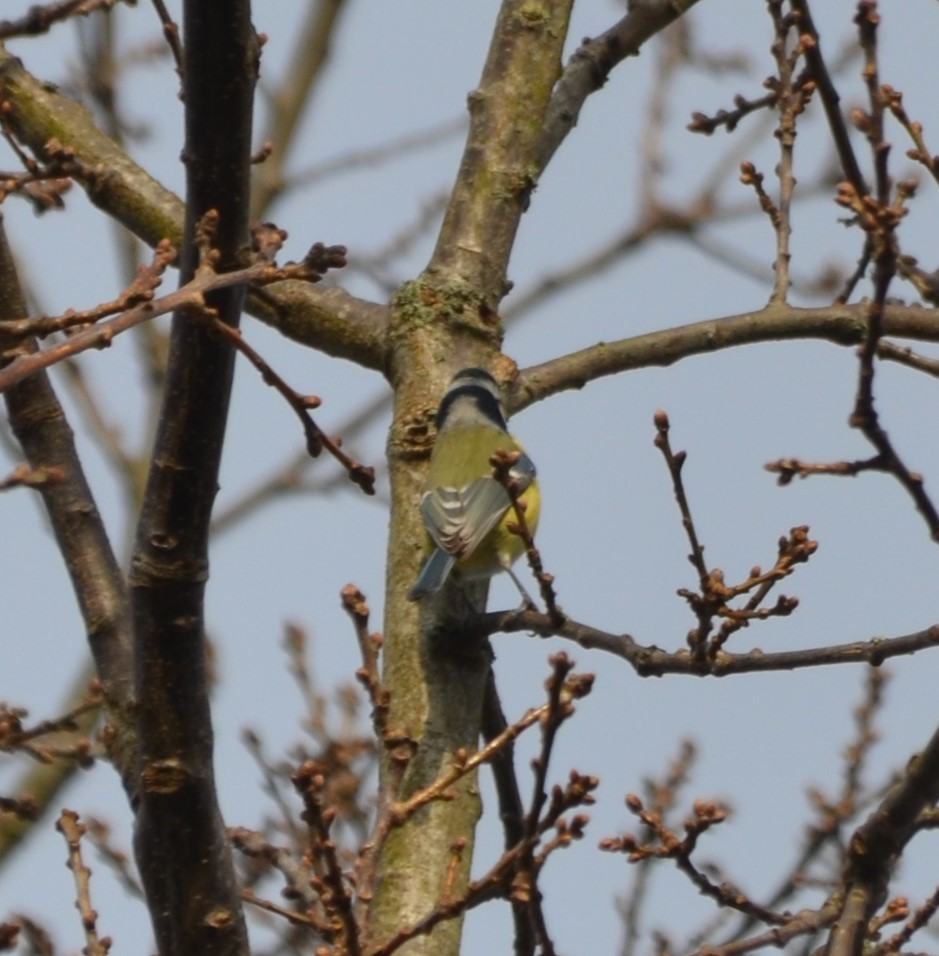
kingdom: Animalia
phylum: Chordata
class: Aves
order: Passeriformes
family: Paridae
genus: Cyanistes
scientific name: Cyanistes caeruleus
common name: Eurasian blue tit
